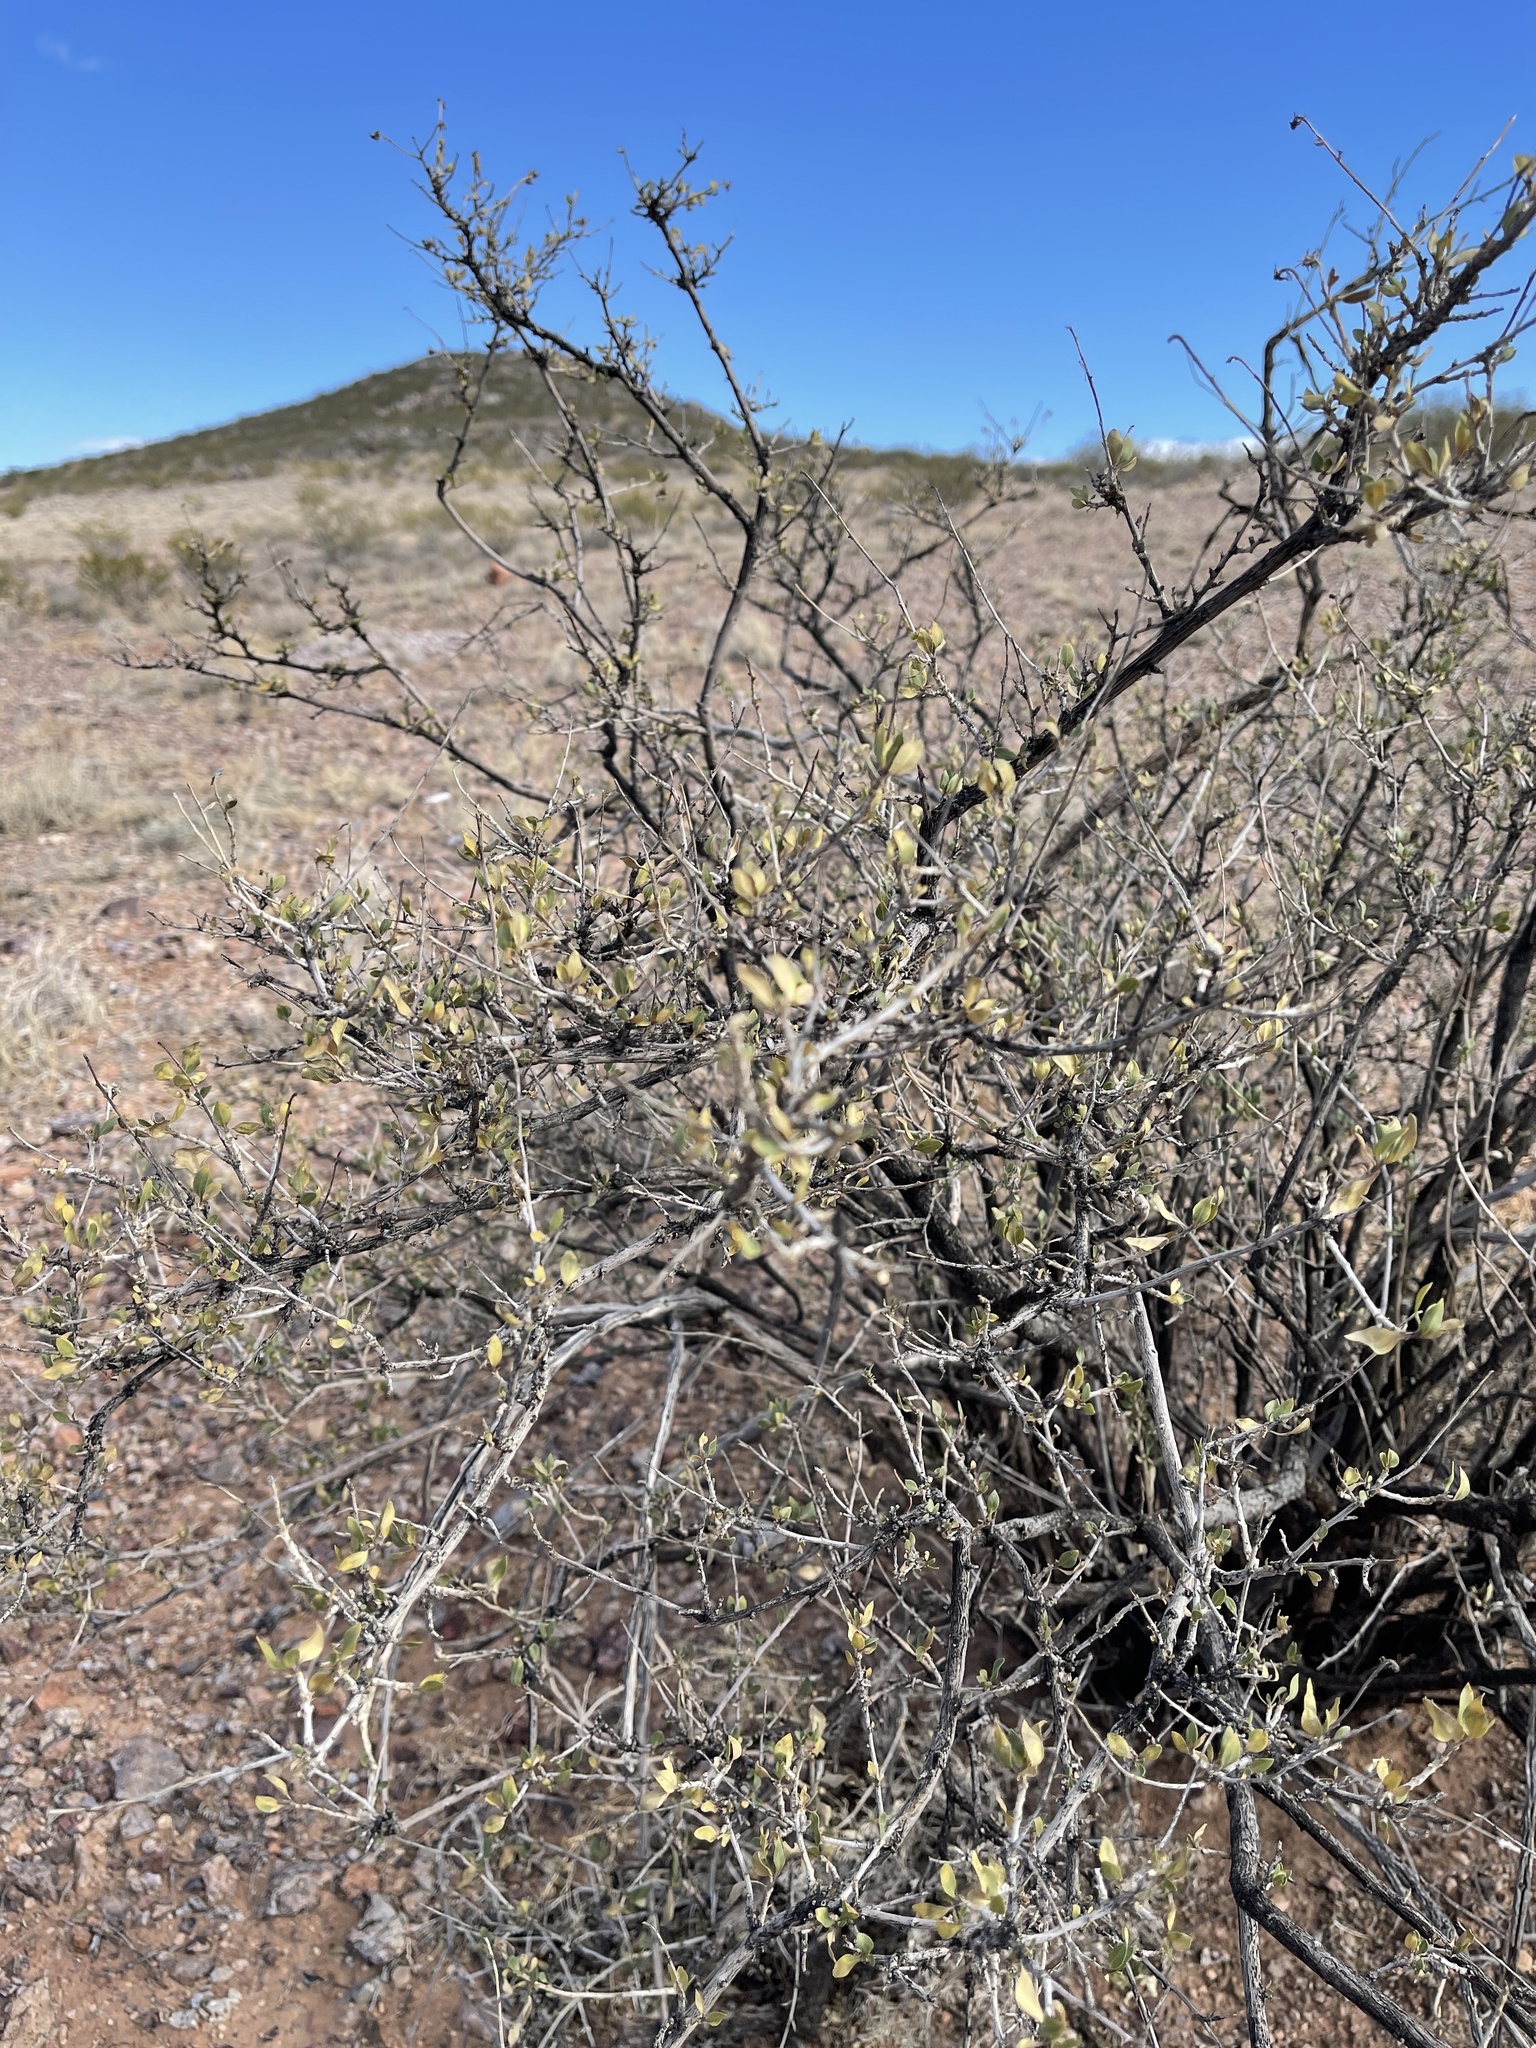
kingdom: Plantae
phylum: Tracheophyta
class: Magnoliopsida
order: Asterales
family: Asteraceae
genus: Flourensia
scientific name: Flourensia cernua
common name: Varnishbush
